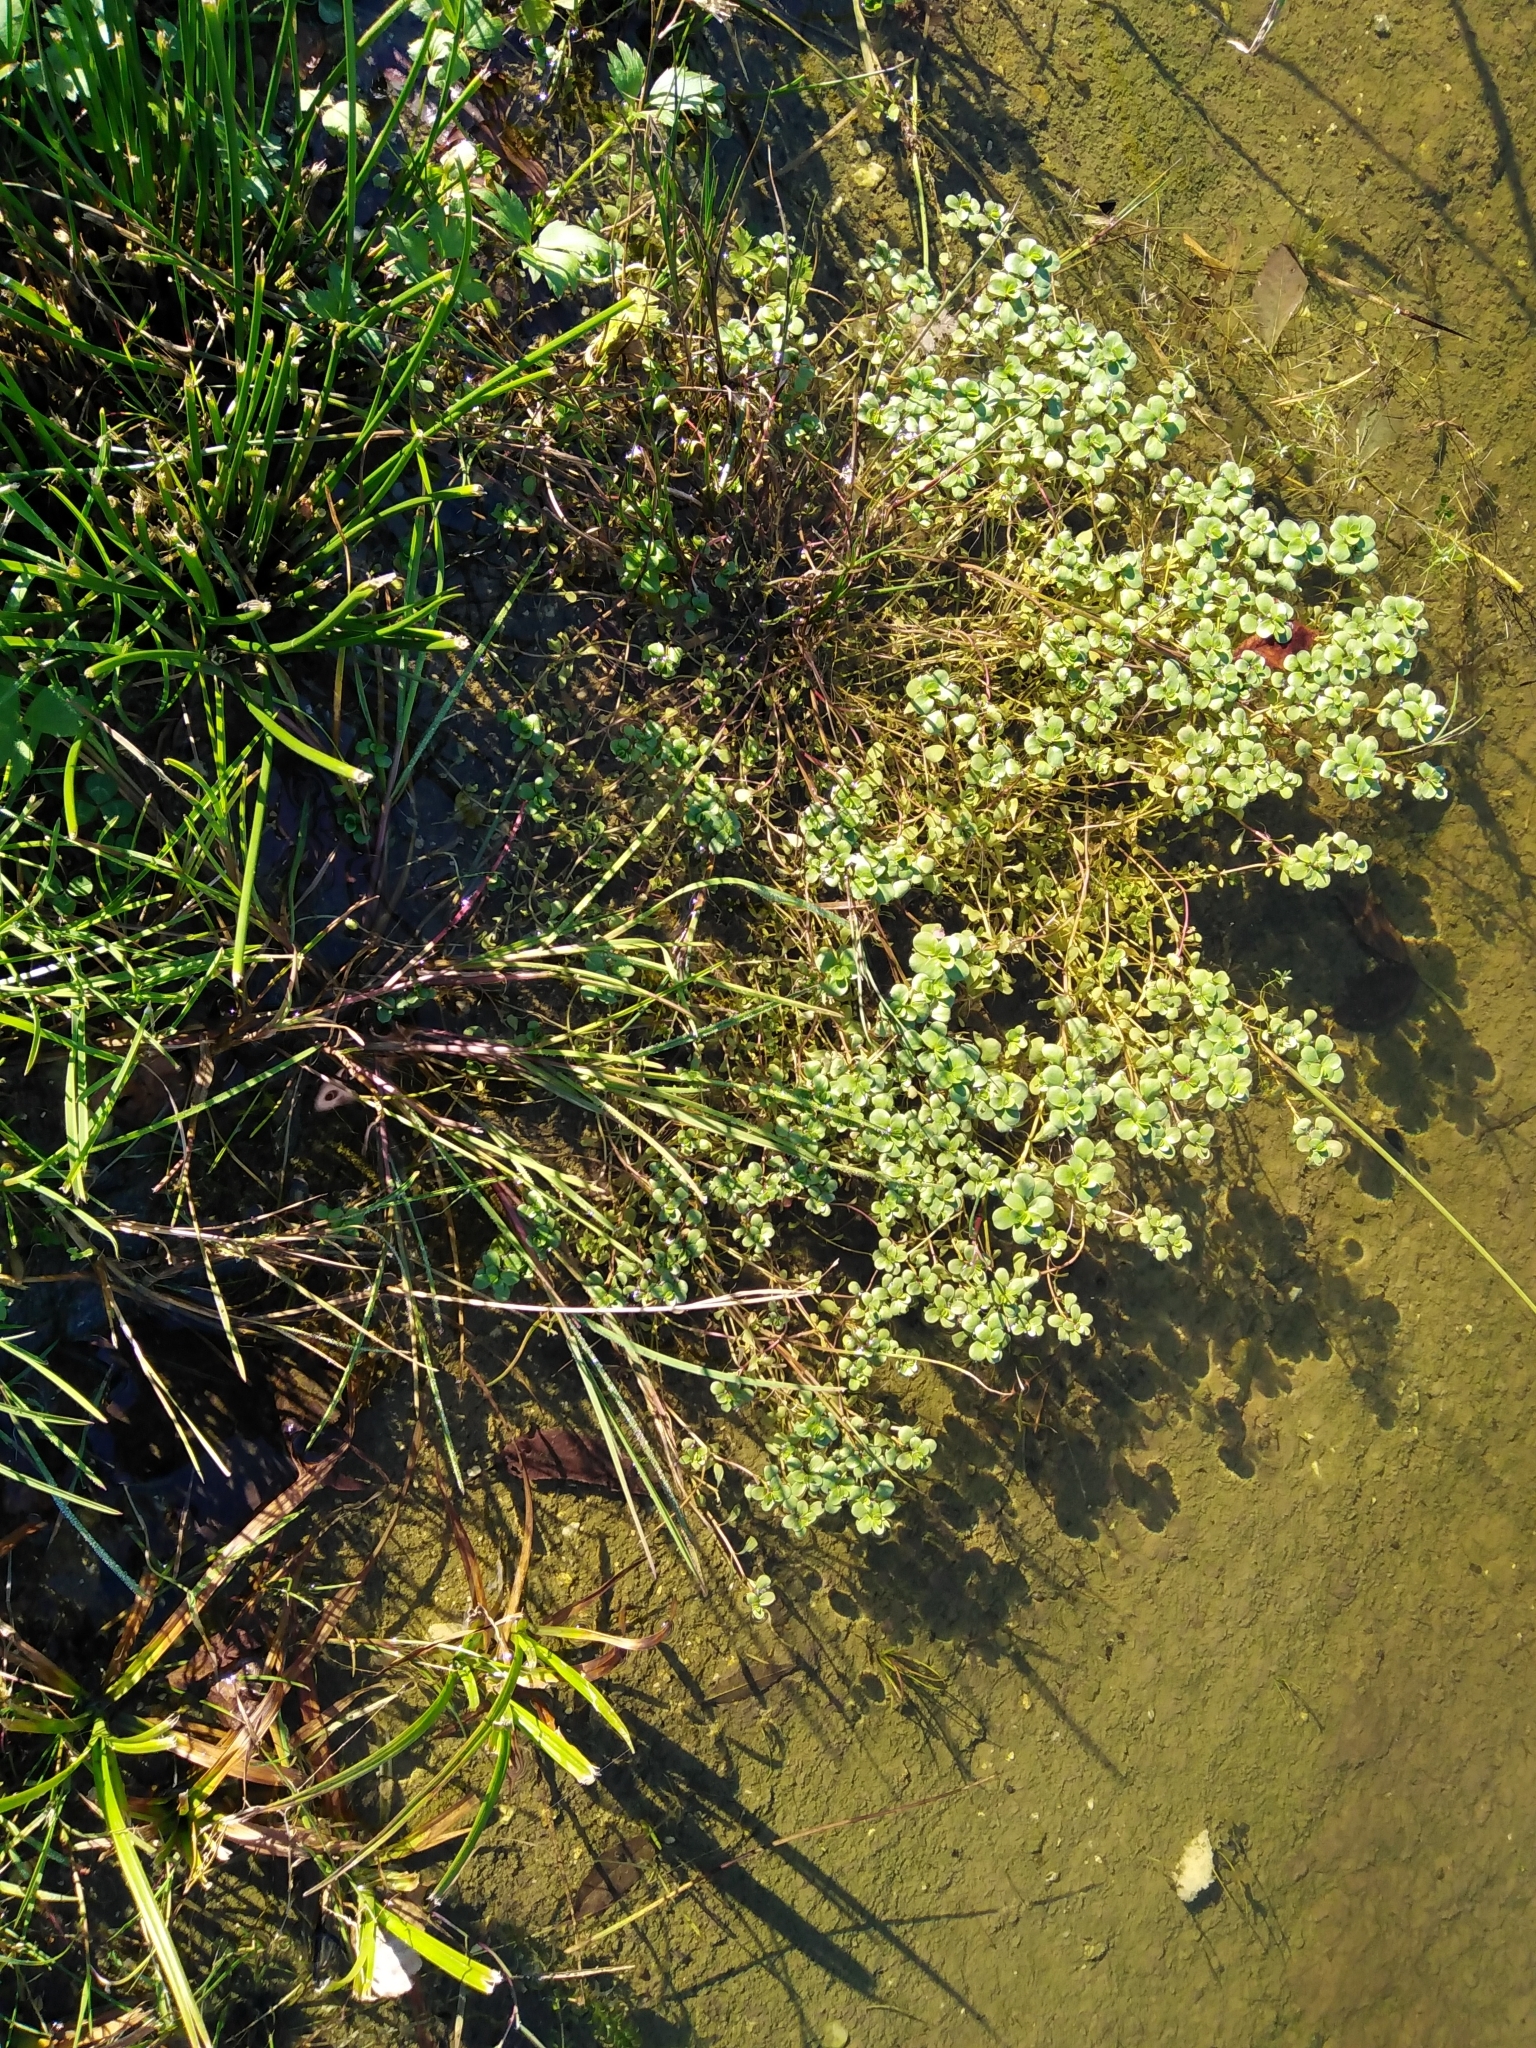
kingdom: Plantae
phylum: Tracheophyta
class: Magnoliopsida
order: Myrtales
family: Lythraceae
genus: Lythrum
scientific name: Lythrum portula
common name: Water purslane
